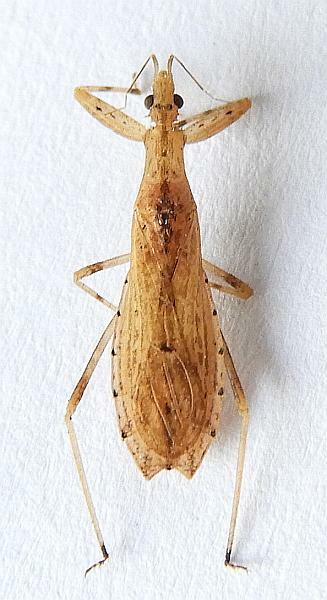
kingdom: Animalia
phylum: Arthropoda
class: Insecta
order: Hemiptera
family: Reduviidae
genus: Ctenotrachelus
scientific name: Ctenotrachelus shermani
